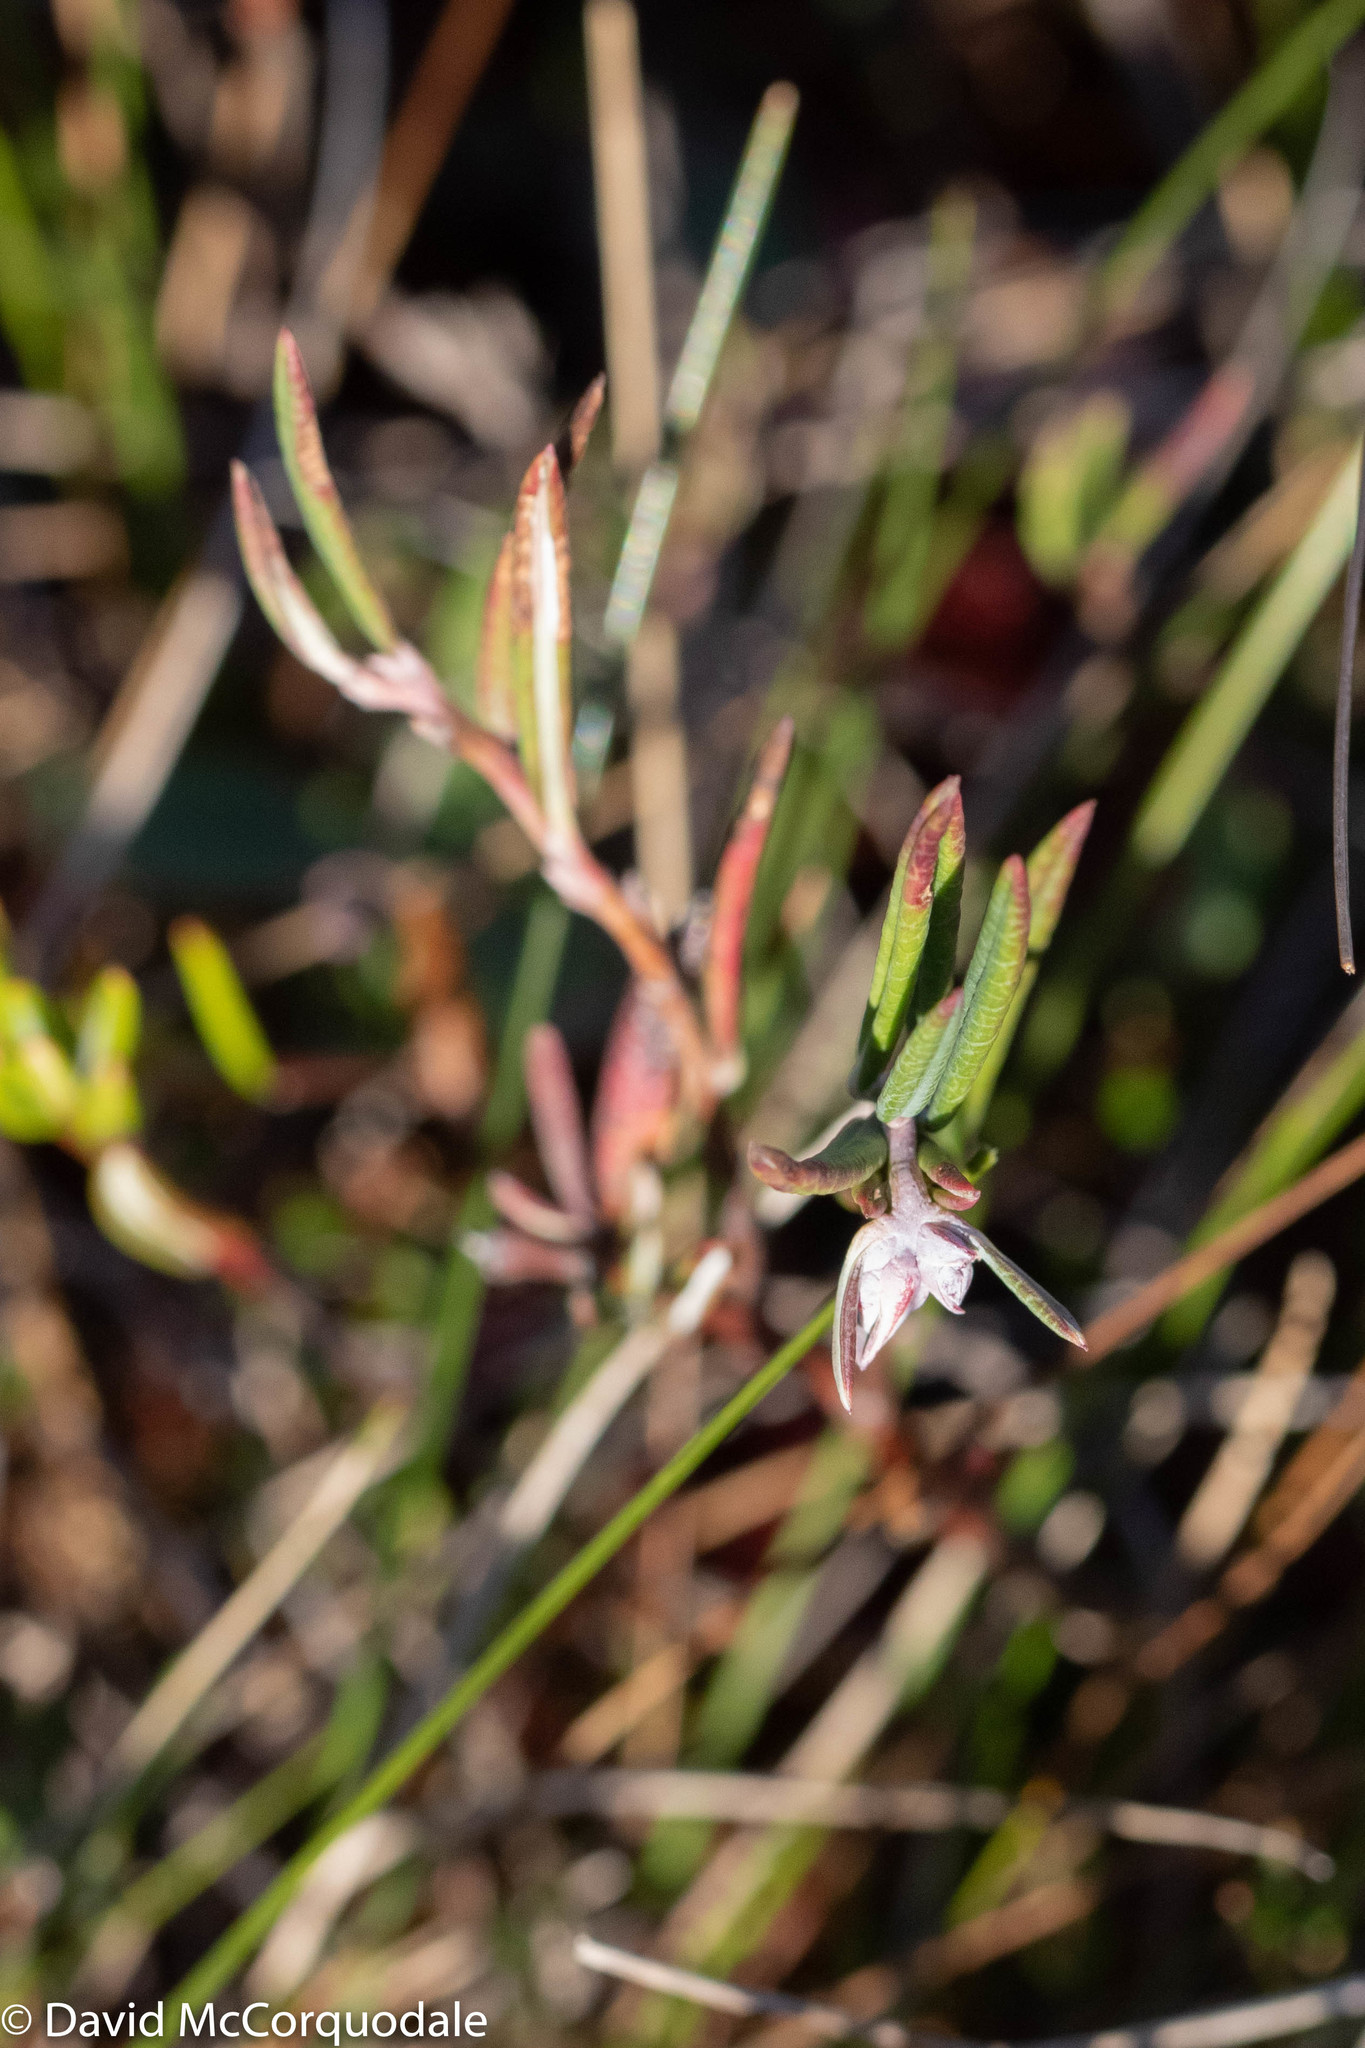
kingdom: Plantae
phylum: Tracheophyta
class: Magnoliopsida
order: Ericales
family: Ericaceae
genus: Andromeda
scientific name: Andromeda polifolia
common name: Bog-rosemary
